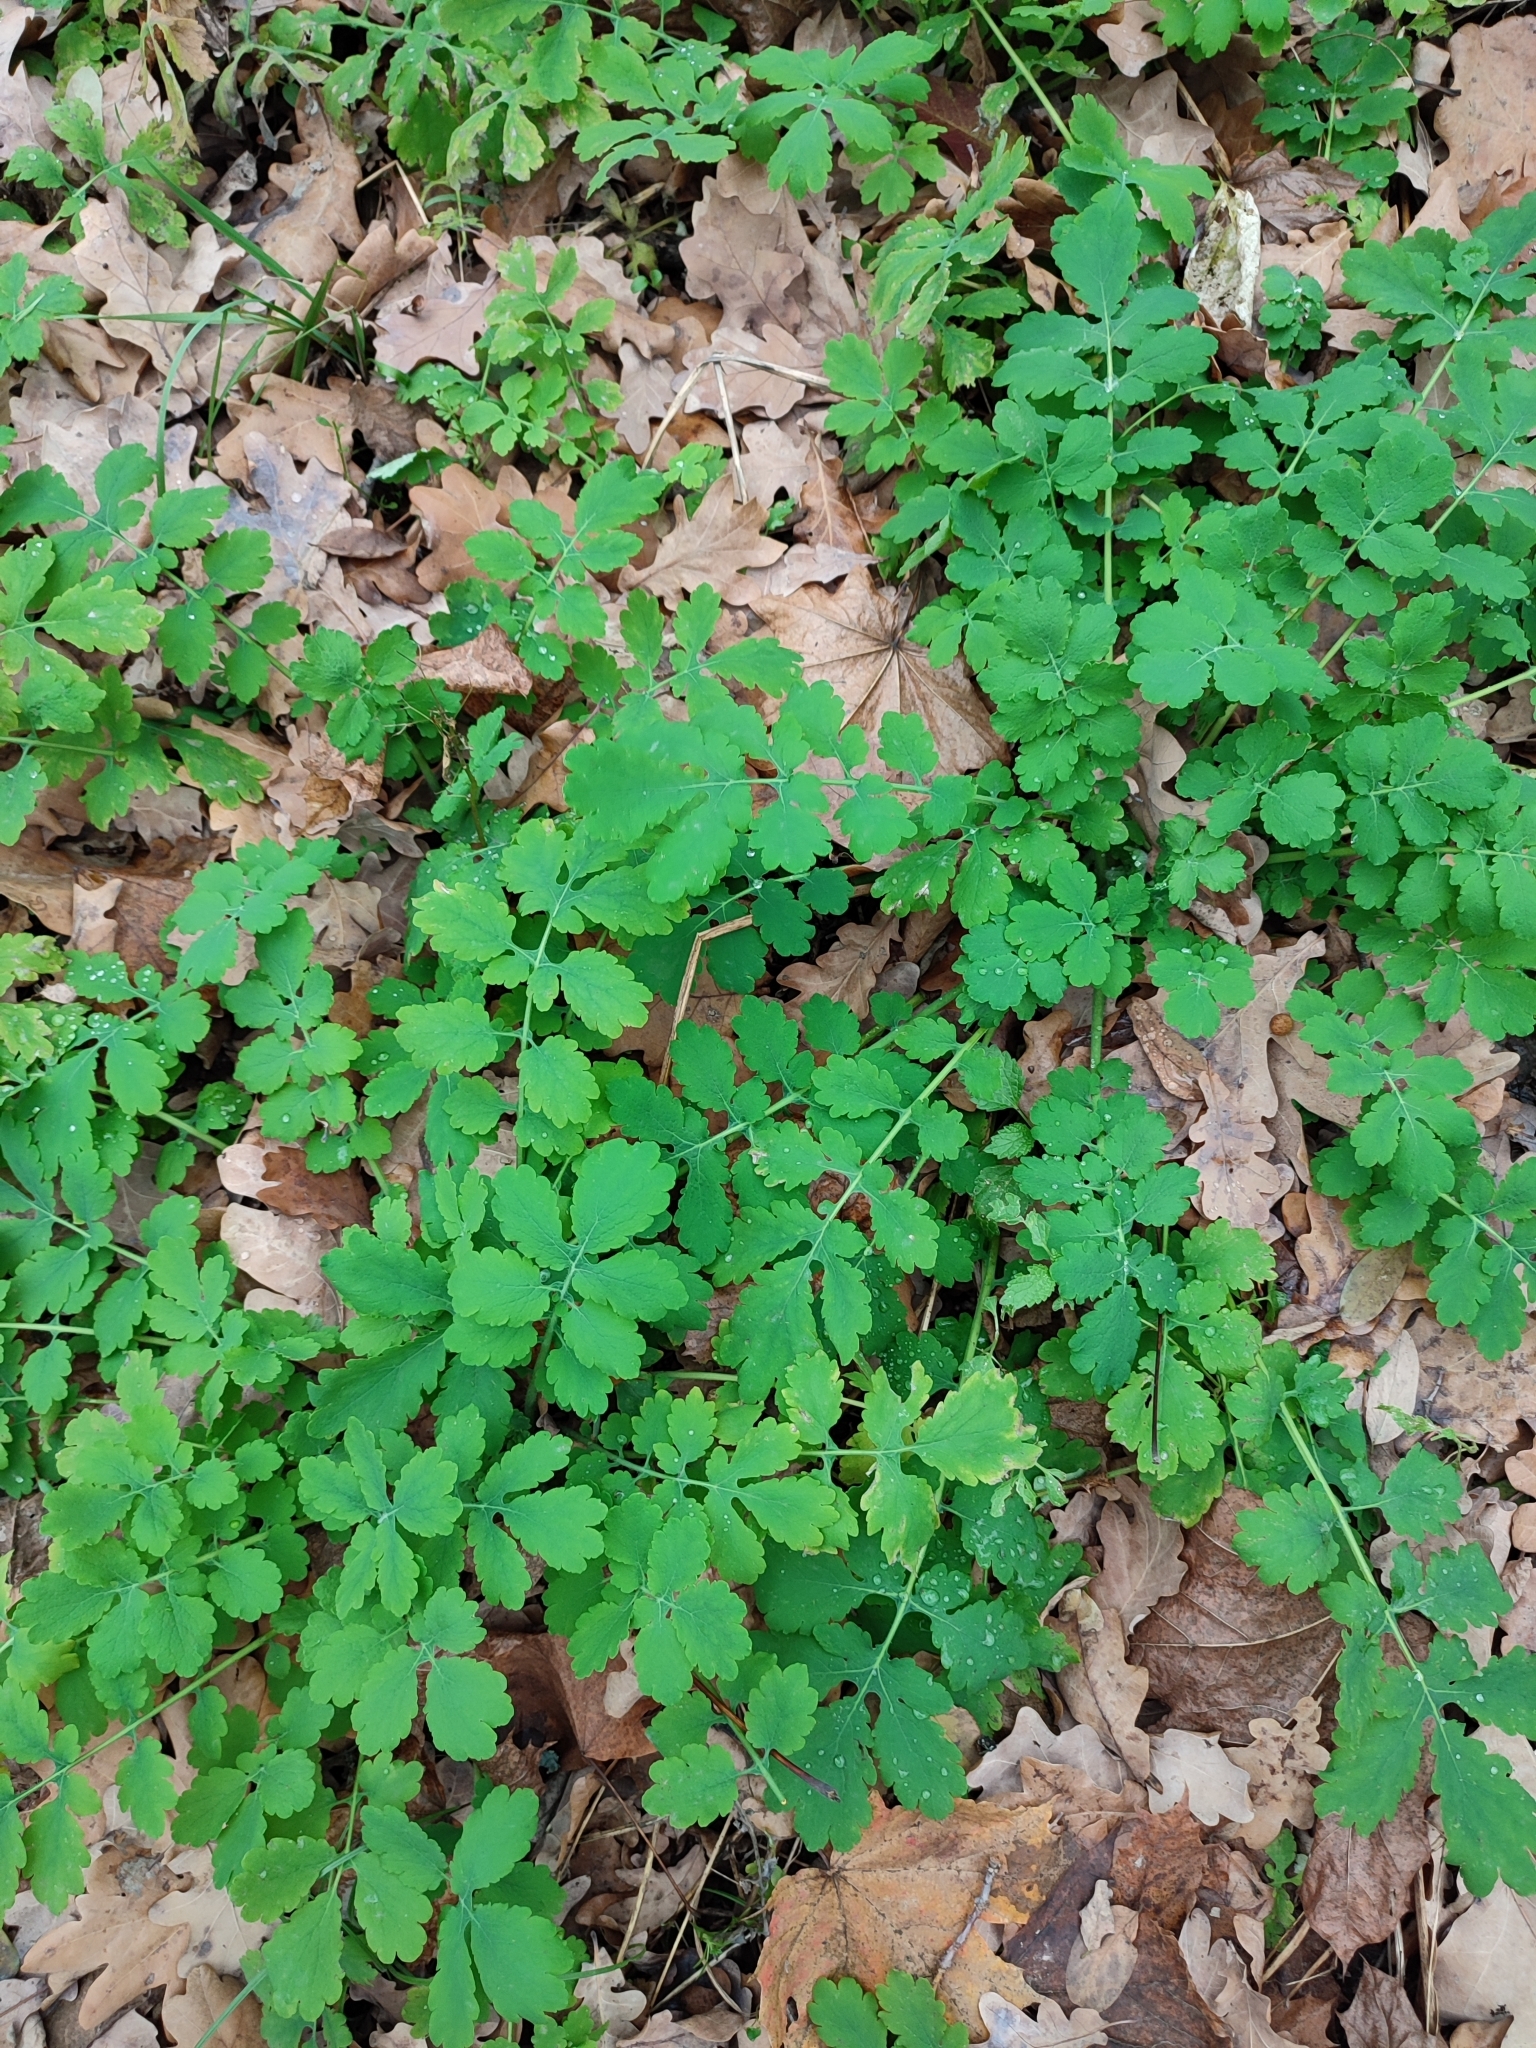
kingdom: Plantae
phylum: Tracheophyta
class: Magnoliopsida
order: Ranunculales
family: Papaveraceae
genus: Chelidonium
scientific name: Chelidonium majus
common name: Greater celandine
